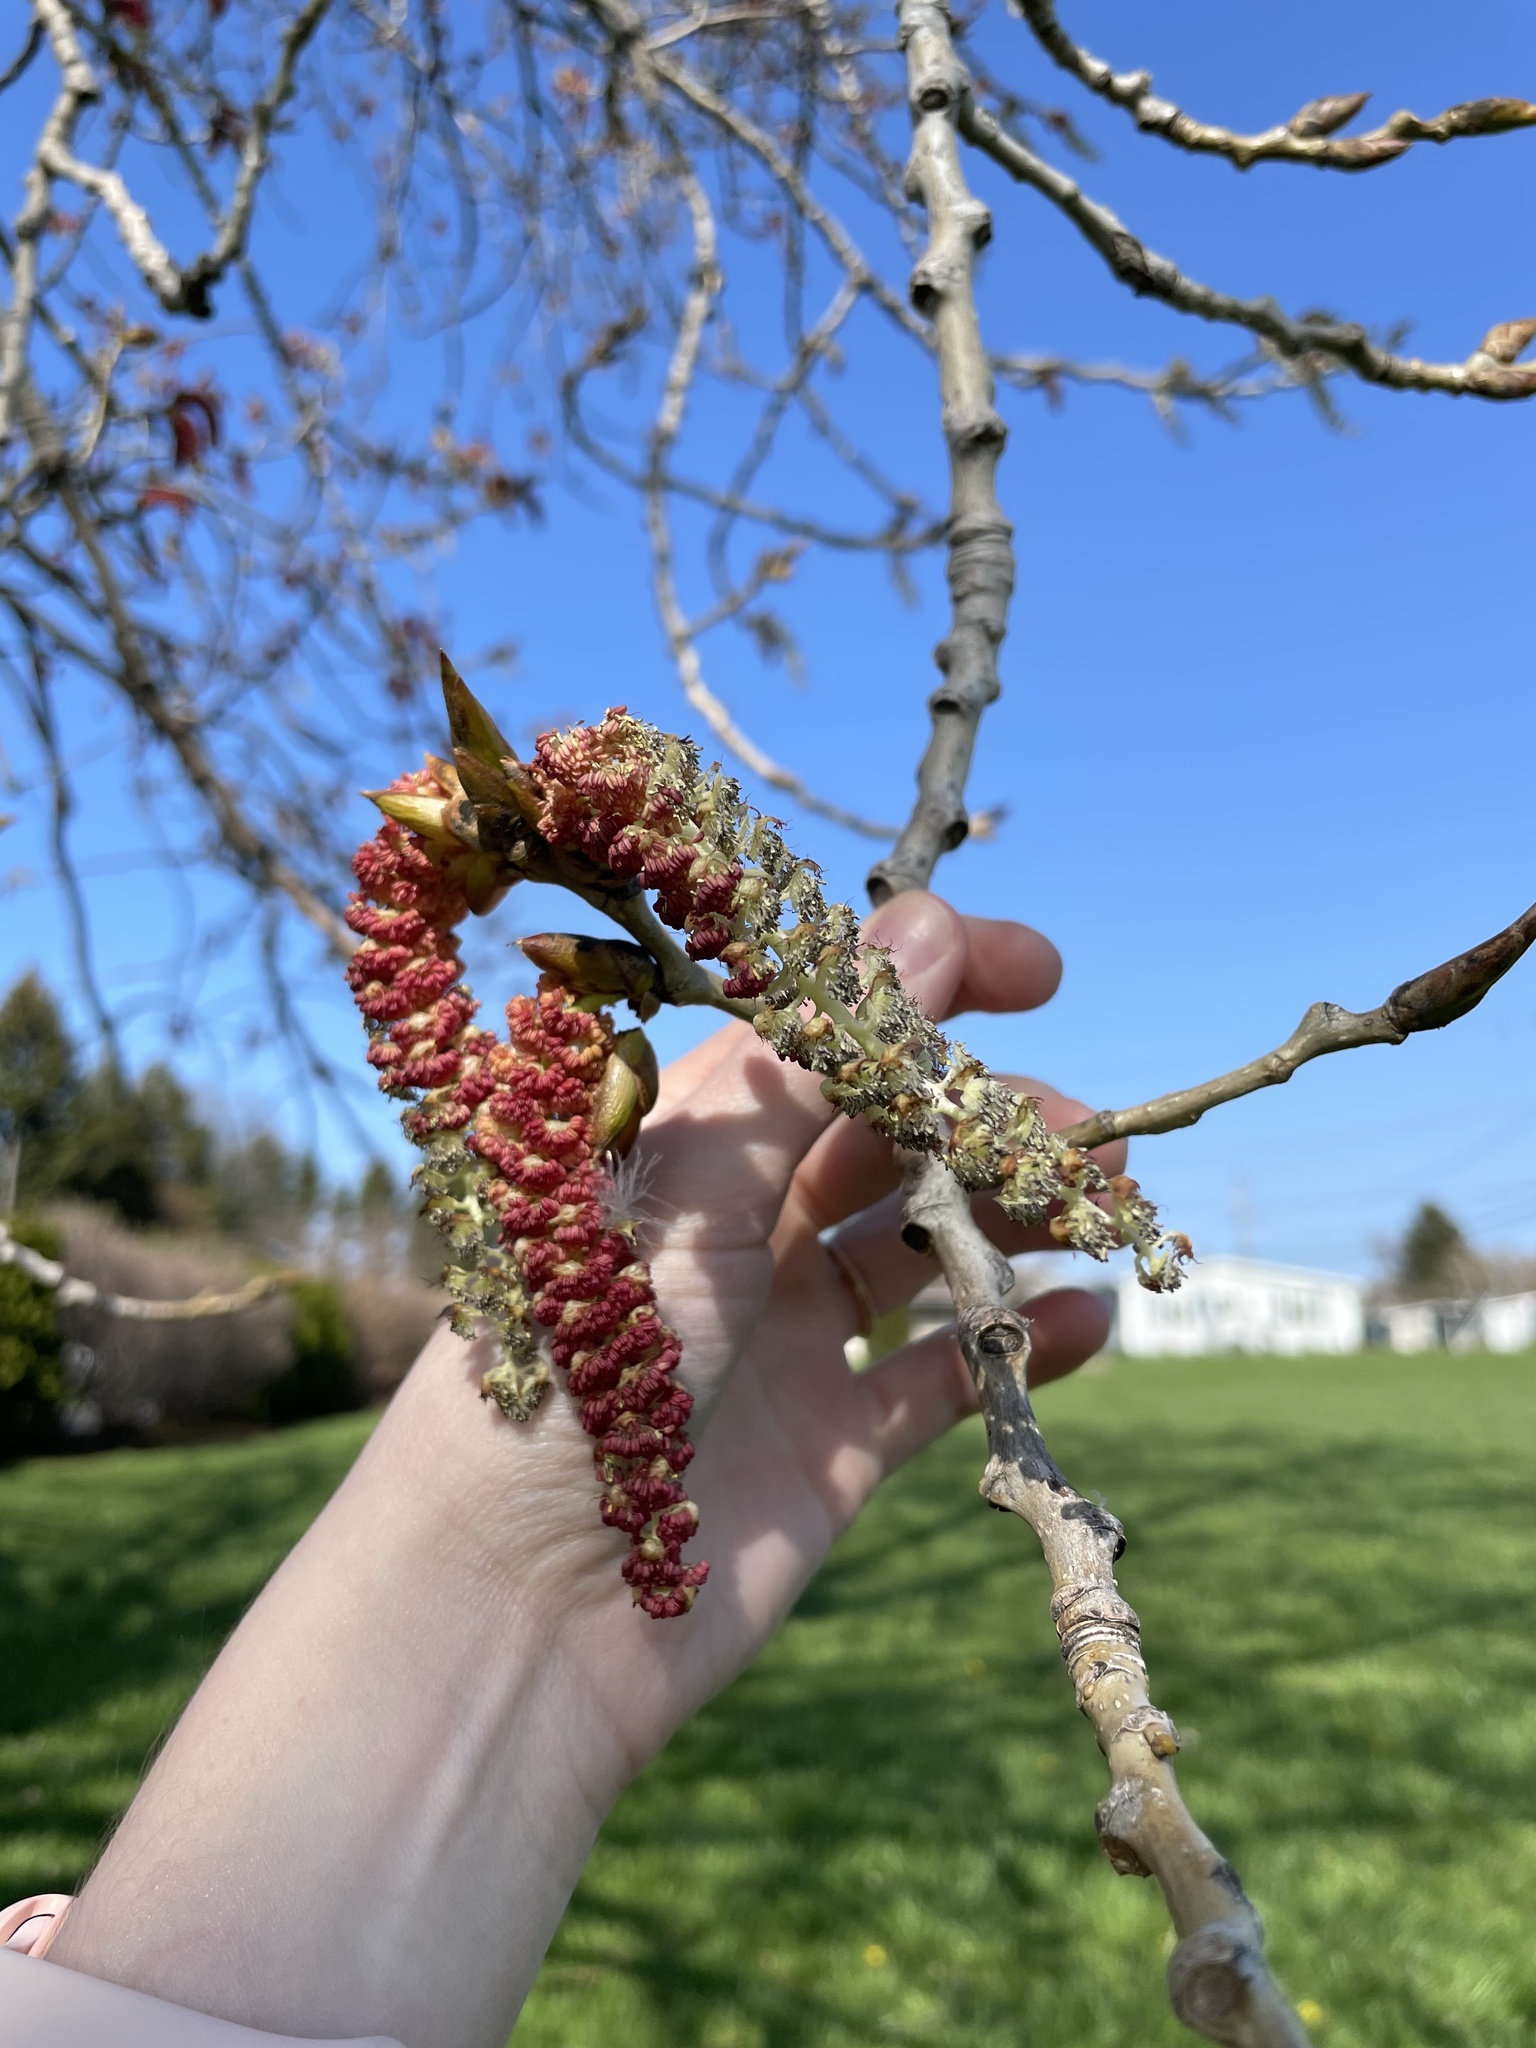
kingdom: Plantae
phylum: Tracheophyta
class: Magnoliopsida
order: Malpighiales
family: Salicaceae
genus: Populus
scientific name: Populus deltoides
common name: Eastern cottonwood
